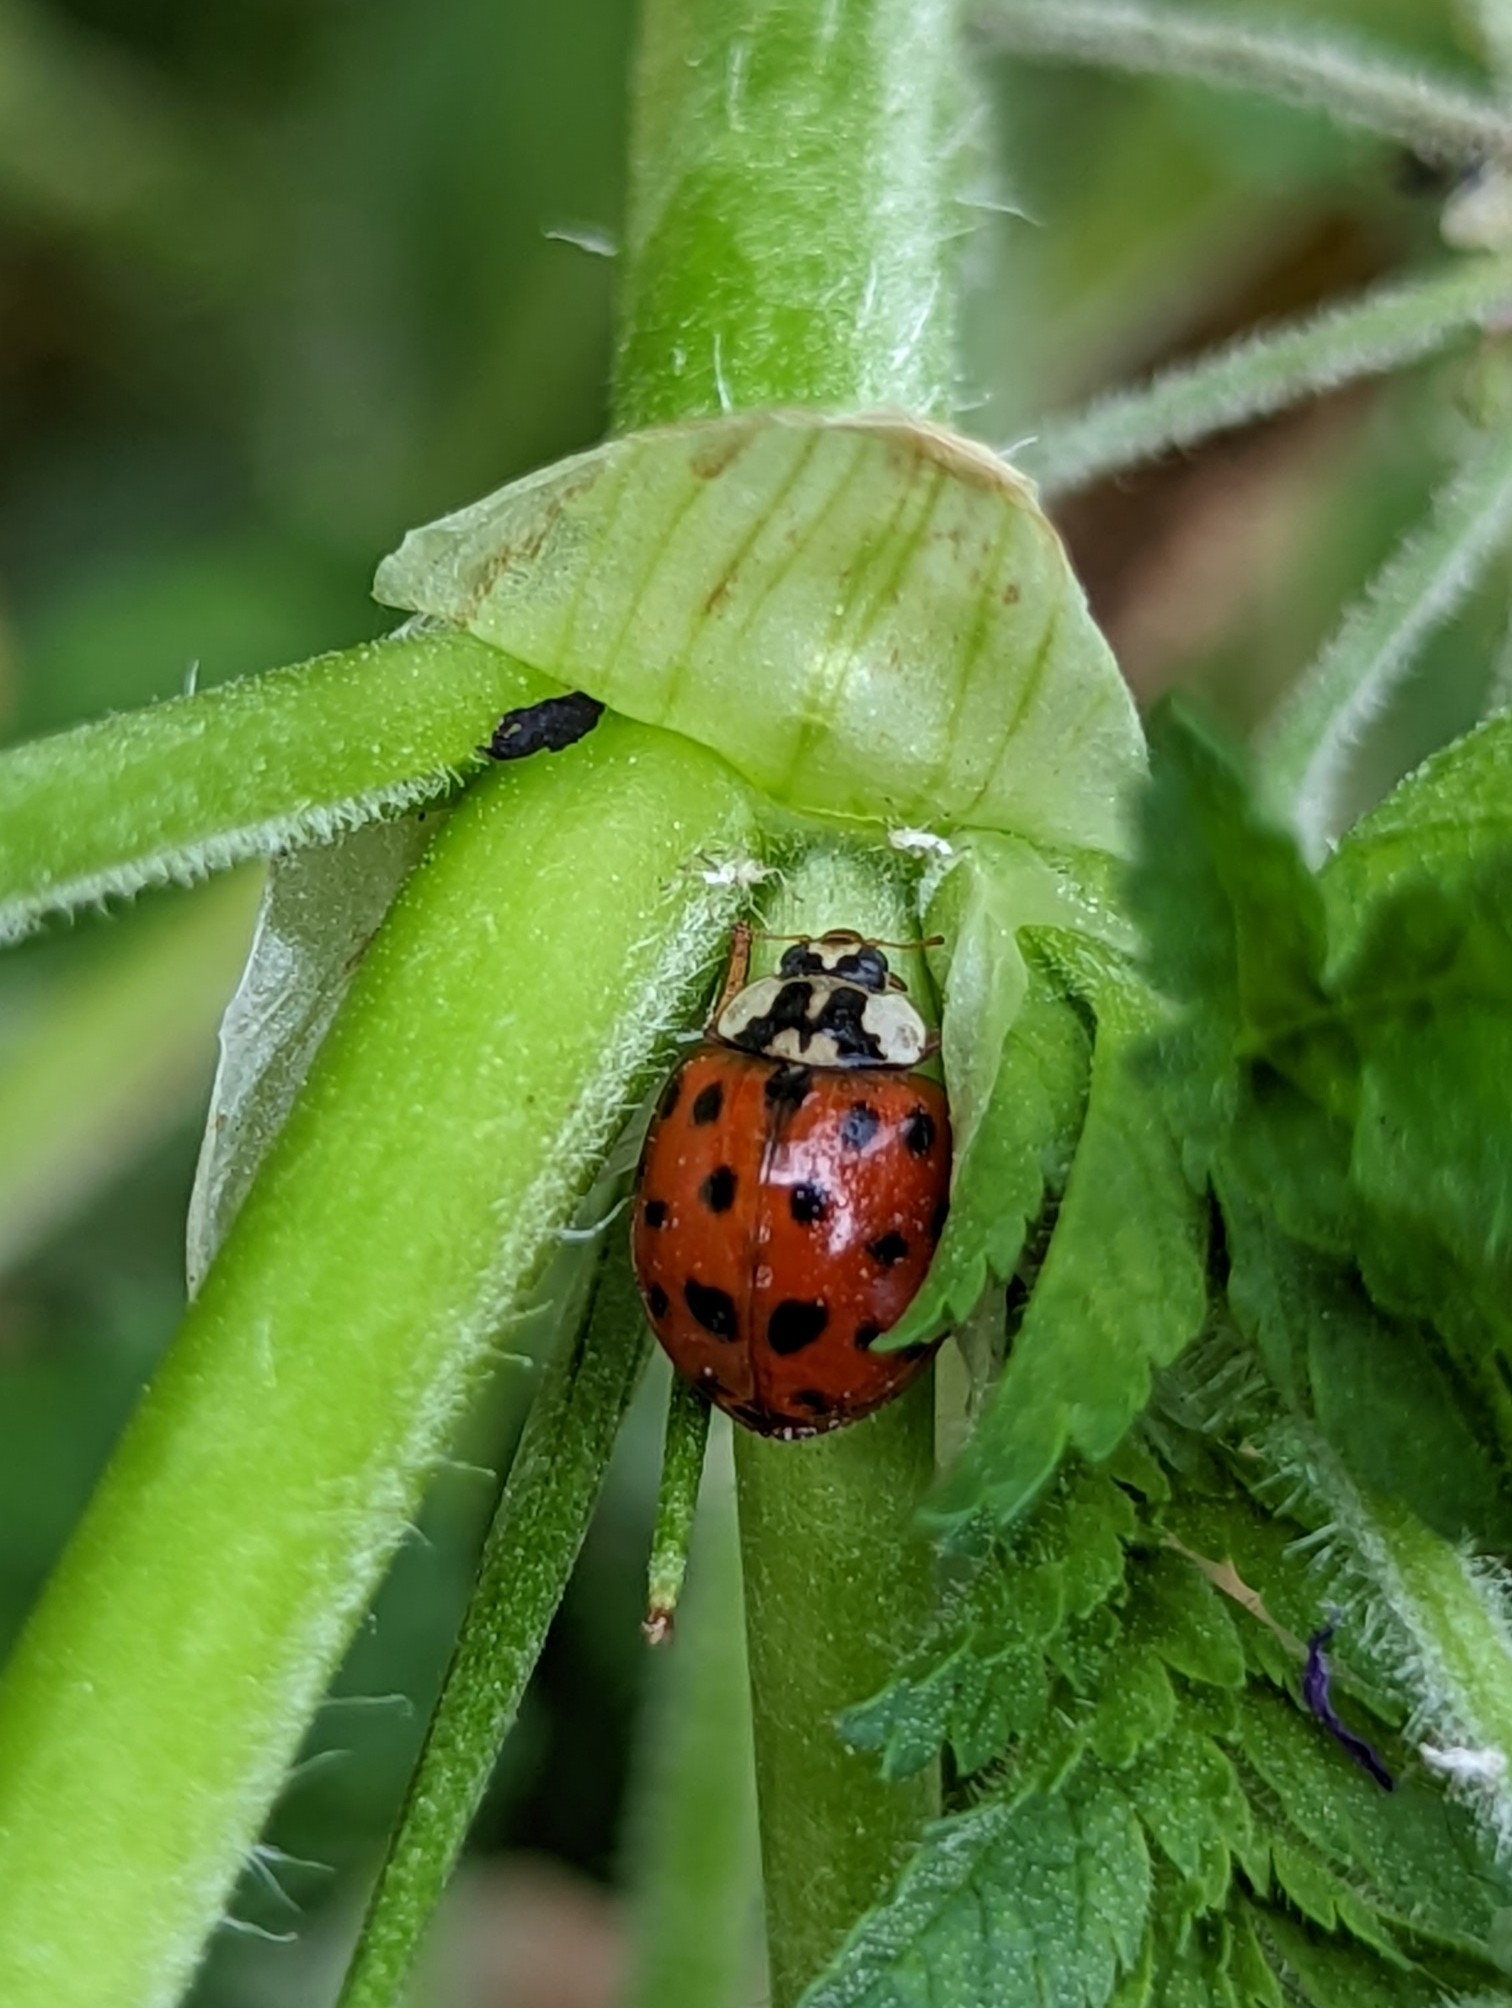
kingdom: Animalia
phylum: Arthropoda
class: Insecta
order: Coleoptera
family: Coccinellidae
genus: Harmonia
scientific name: Harmonia axyridis
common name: Harlequin ladybird
